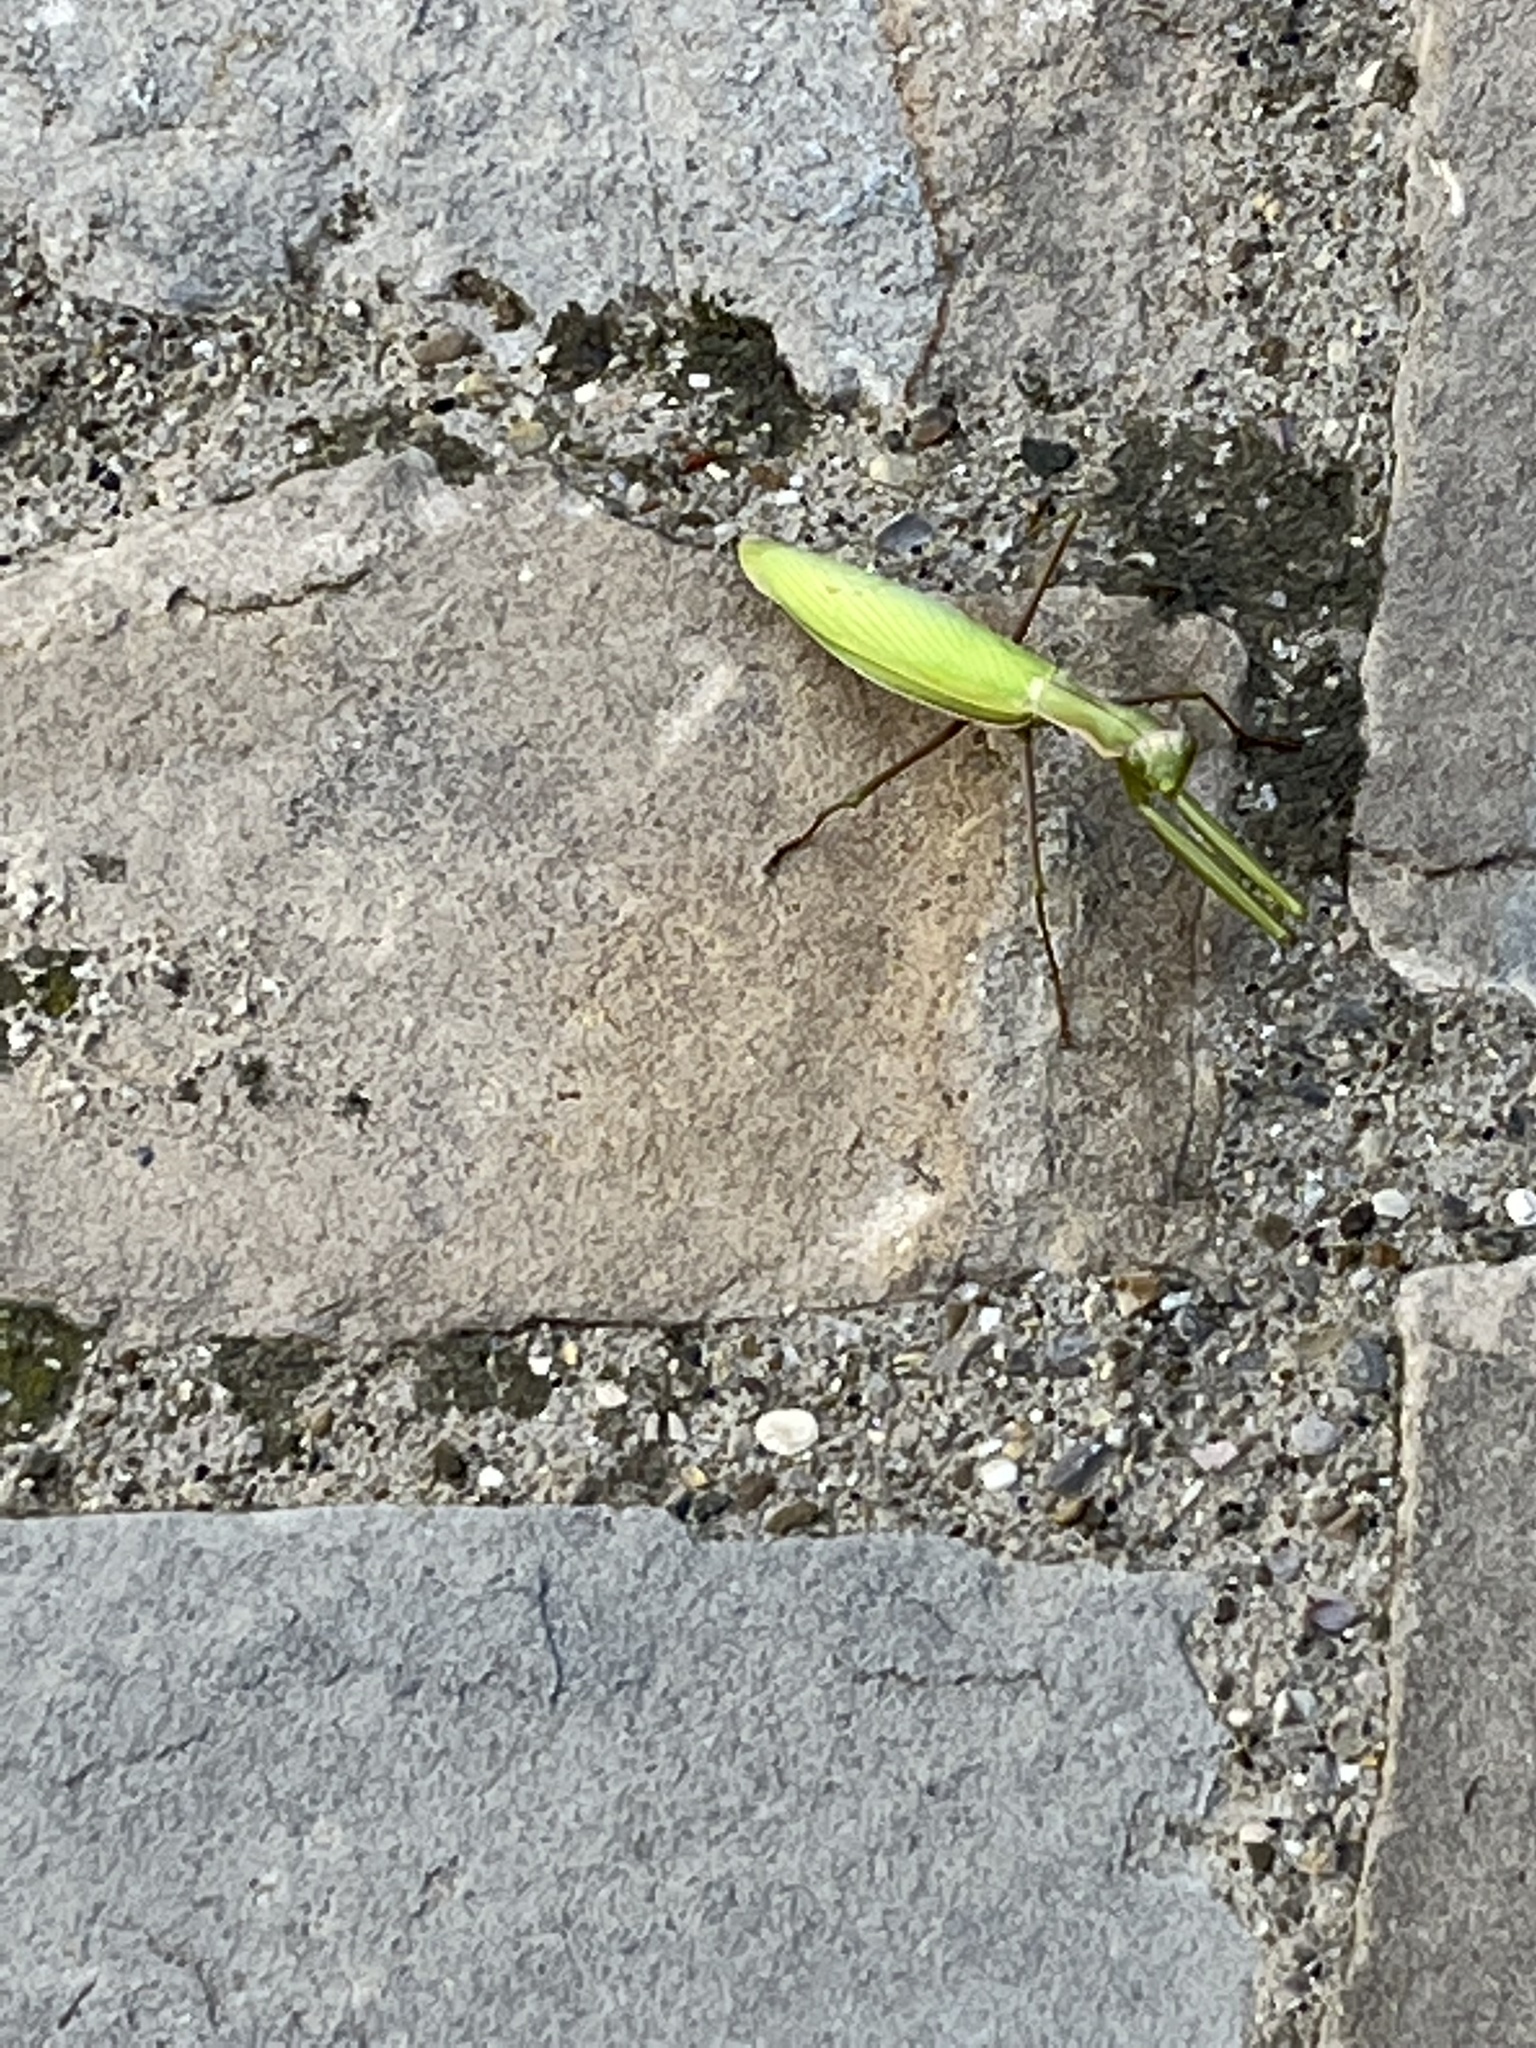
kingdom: Animalia
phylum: Arthropoda
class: Insecta
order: Mantodea
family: Mantidae
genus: Mantis
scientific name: Mantis religiosa
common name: Praying mantis
